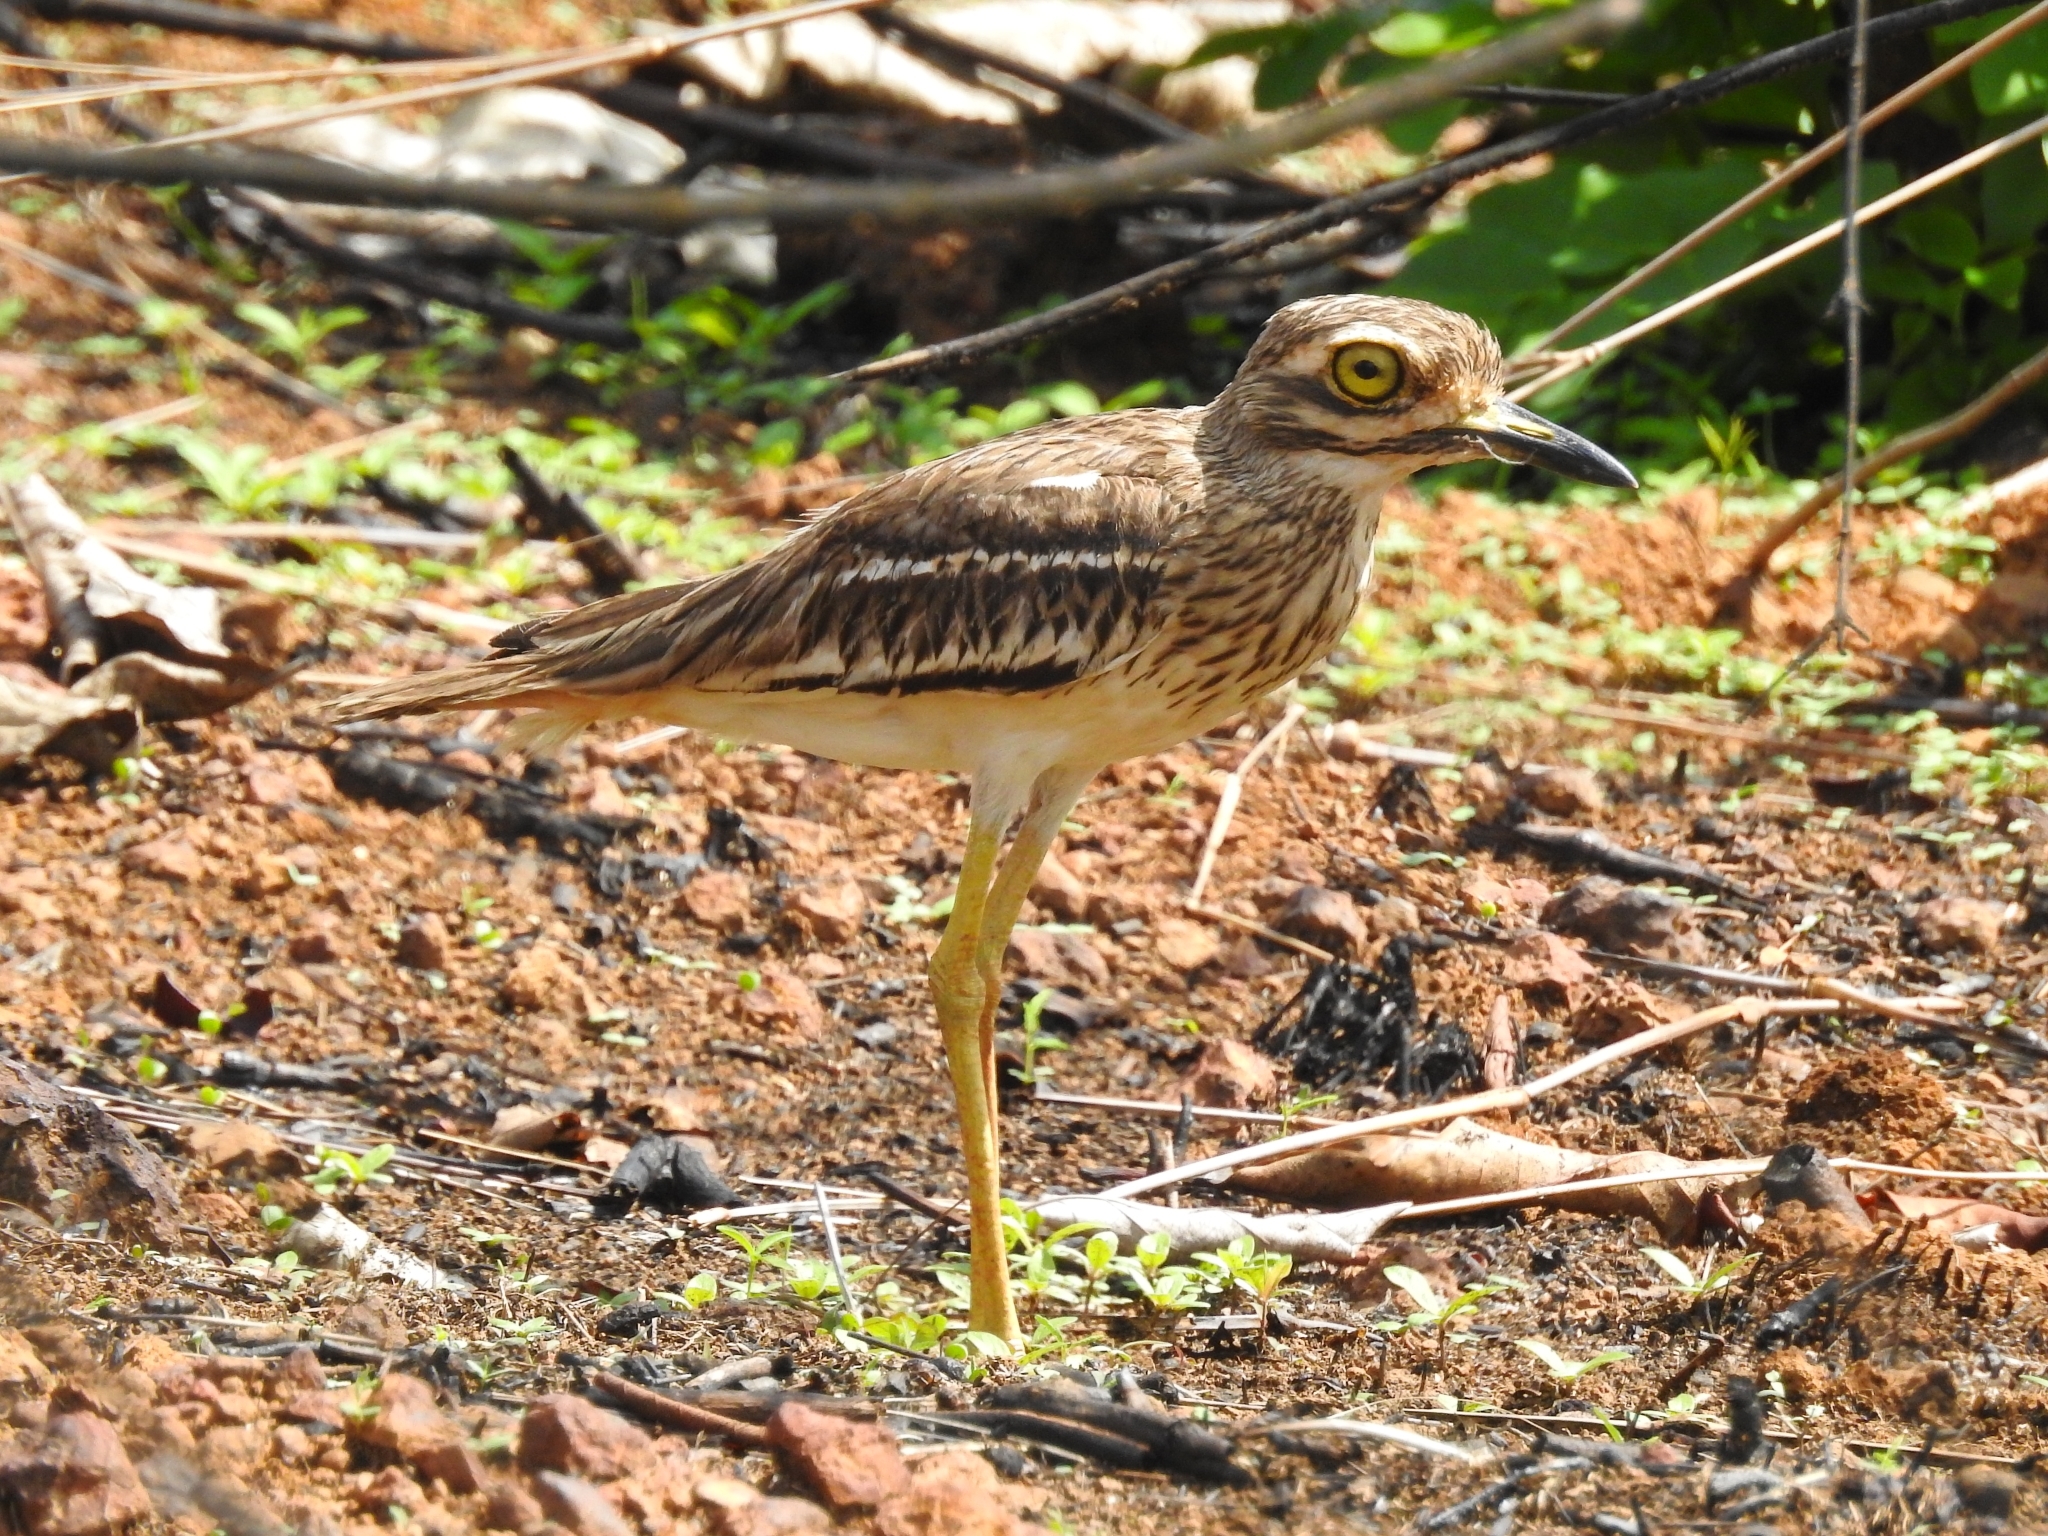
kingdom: Animalia
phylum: Chordata
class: Aves
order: Charadriiformes
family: Burhinidae
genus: Burhinus
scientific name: Burhinus indicus
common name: Indian thick-knee
